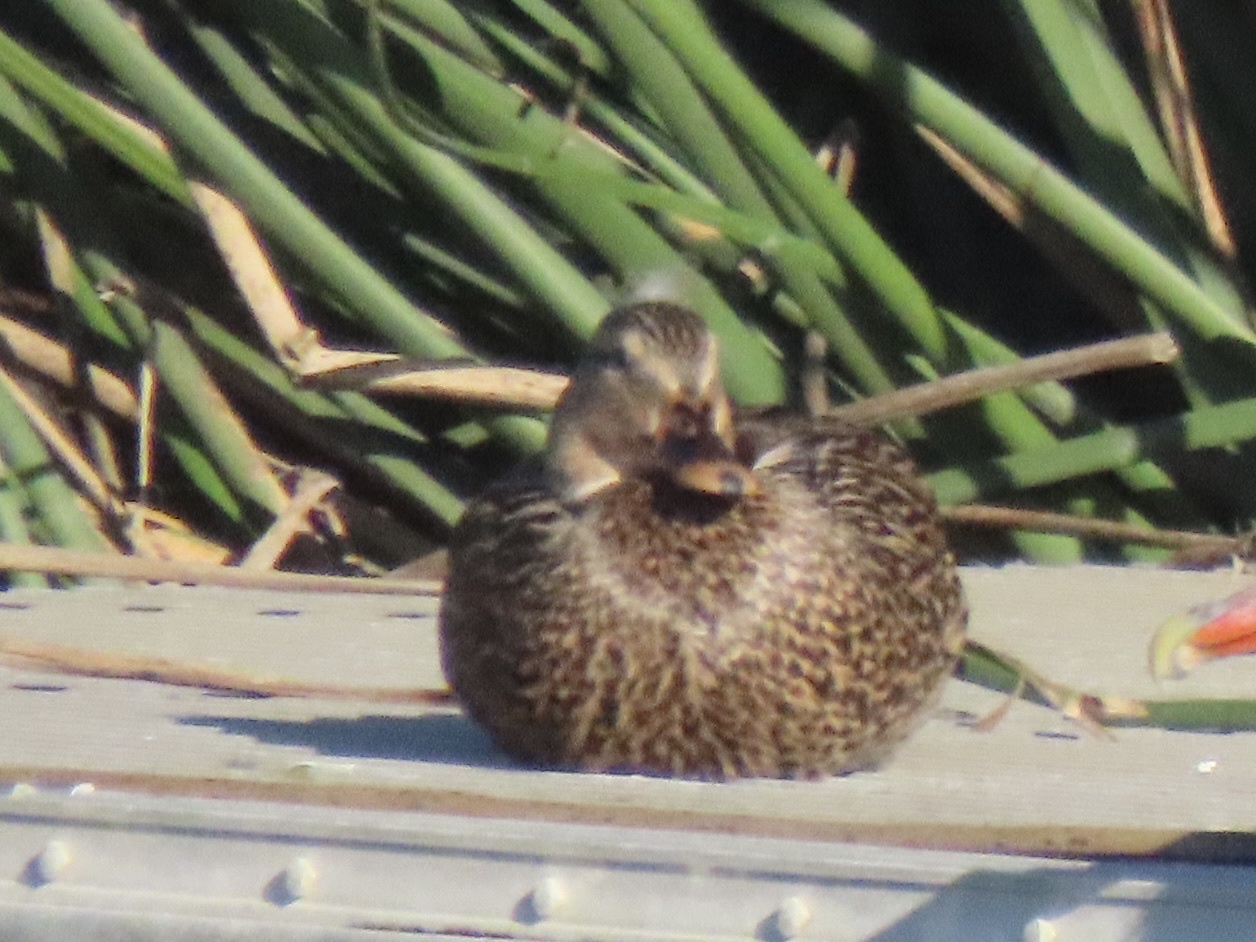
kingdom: Animalia
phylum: Chordata
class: Aves
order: Anseriformes
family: Anatidae
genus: Anas
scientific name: Anas platyrhynchos
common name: Mallard
